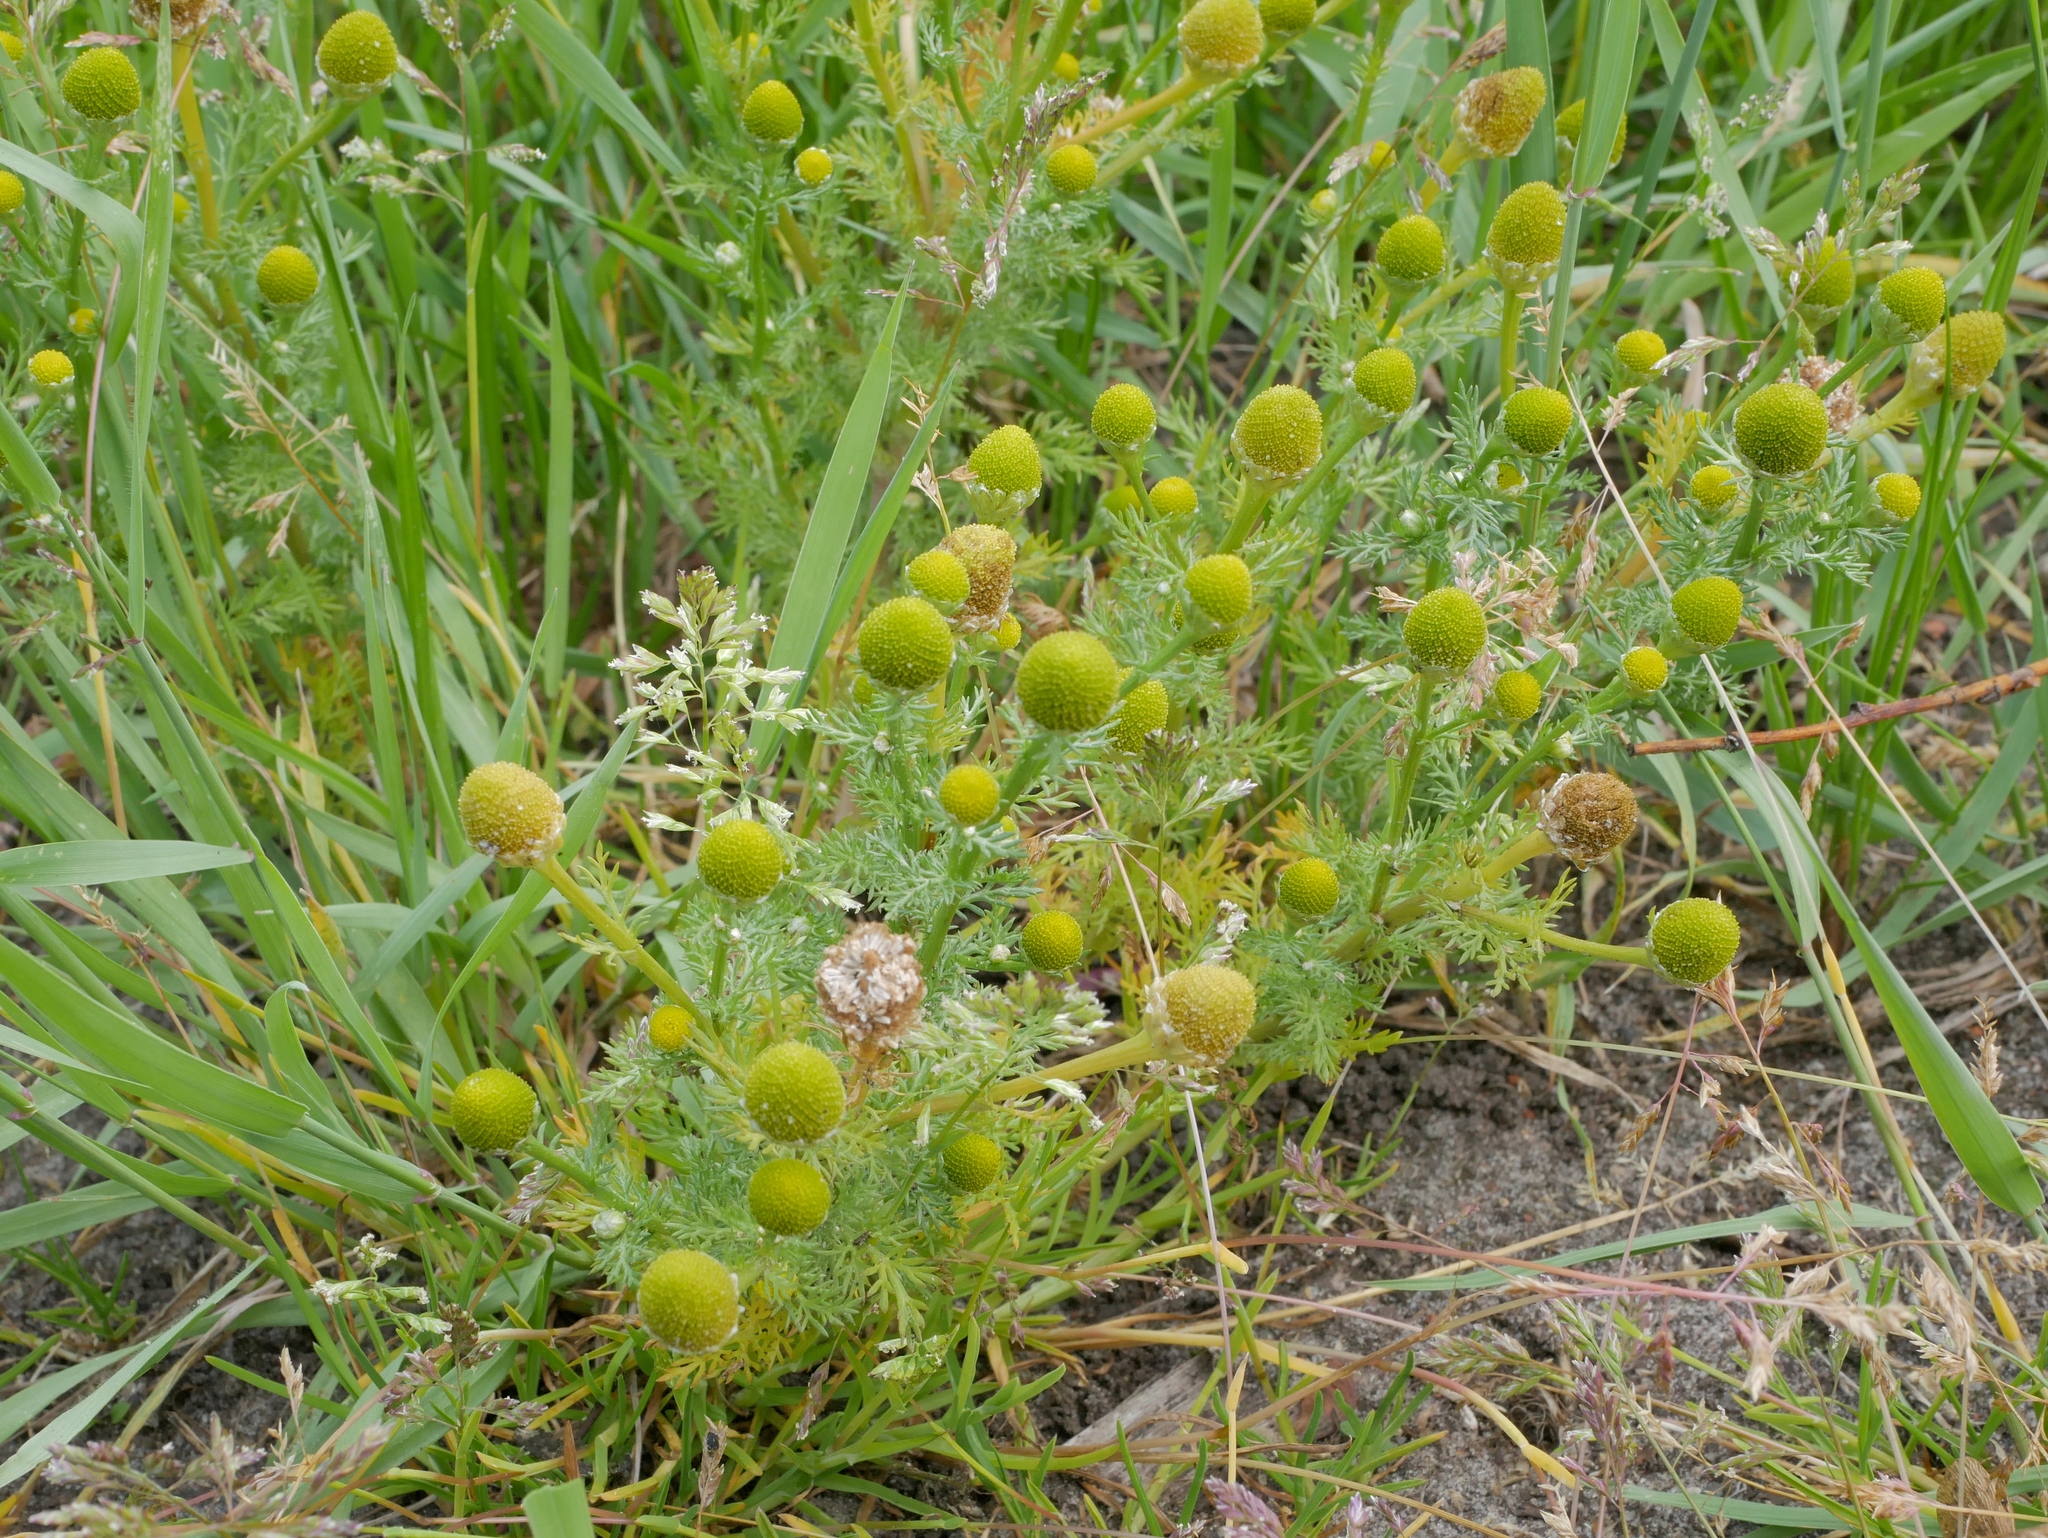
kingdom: Plantae
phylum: Tracheophyta
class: Magnoliopsida
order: Asterales
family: Asteraceae
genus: Matricaria
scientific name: Matricaria discoidea
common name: Disc mayweed
